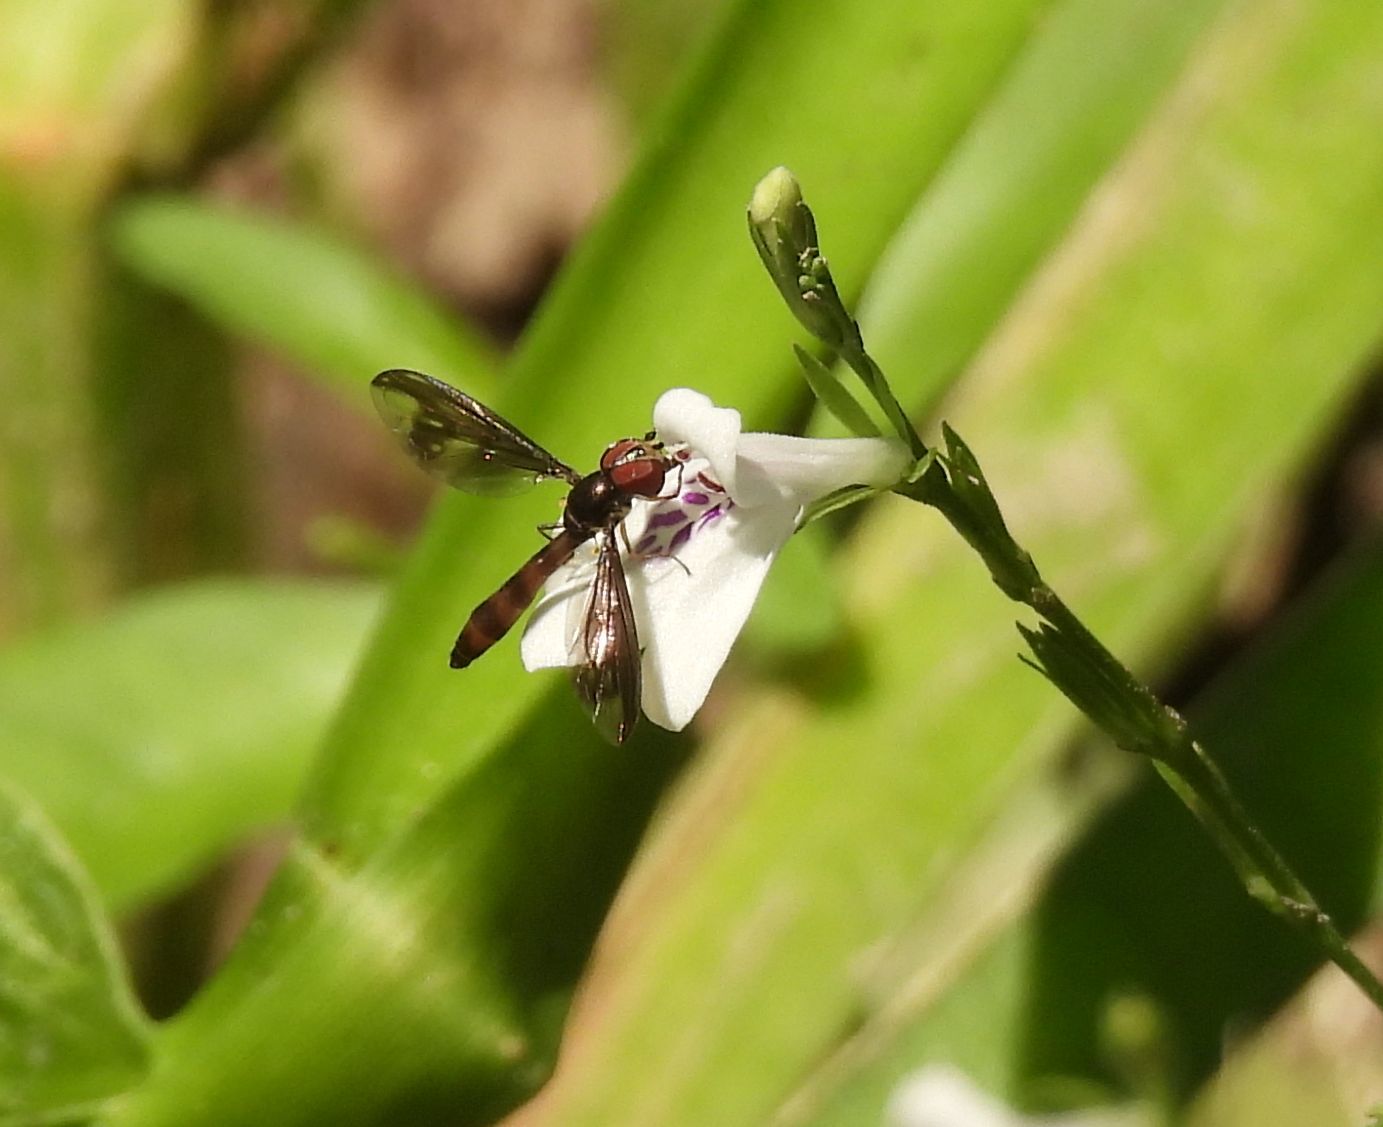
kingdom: Animalia
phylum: Arthropoda
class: Insecta
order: Diptera
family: Syrphidae
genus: Ocyptamus
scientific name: Ocyptamus fuscipennis
